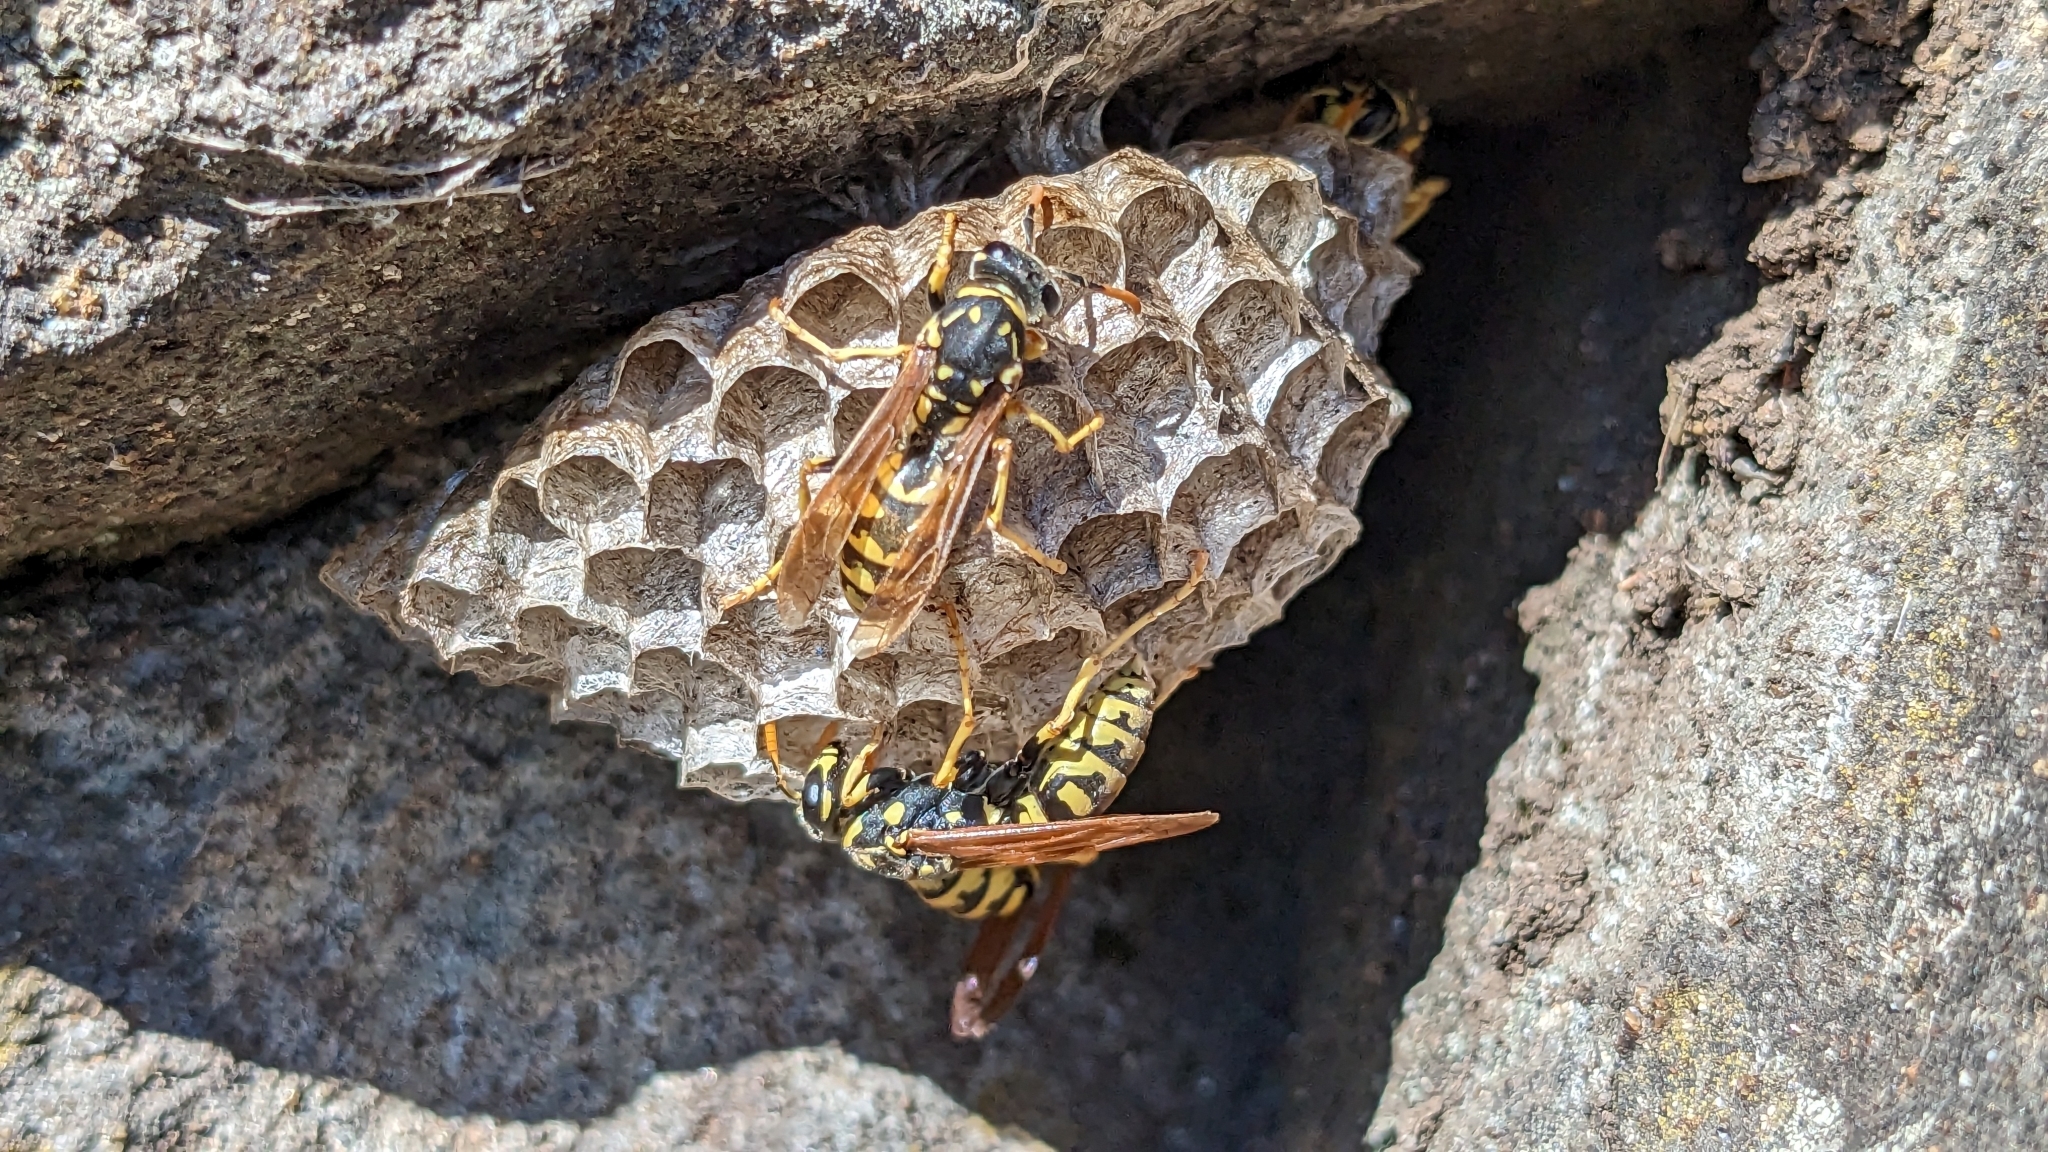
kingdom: Animalia
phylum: Arthropoda
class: Insecta
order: Hymenoptera
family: Eumenidae
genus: Polistes
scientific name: Polistes dominula
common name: Paper wasp
